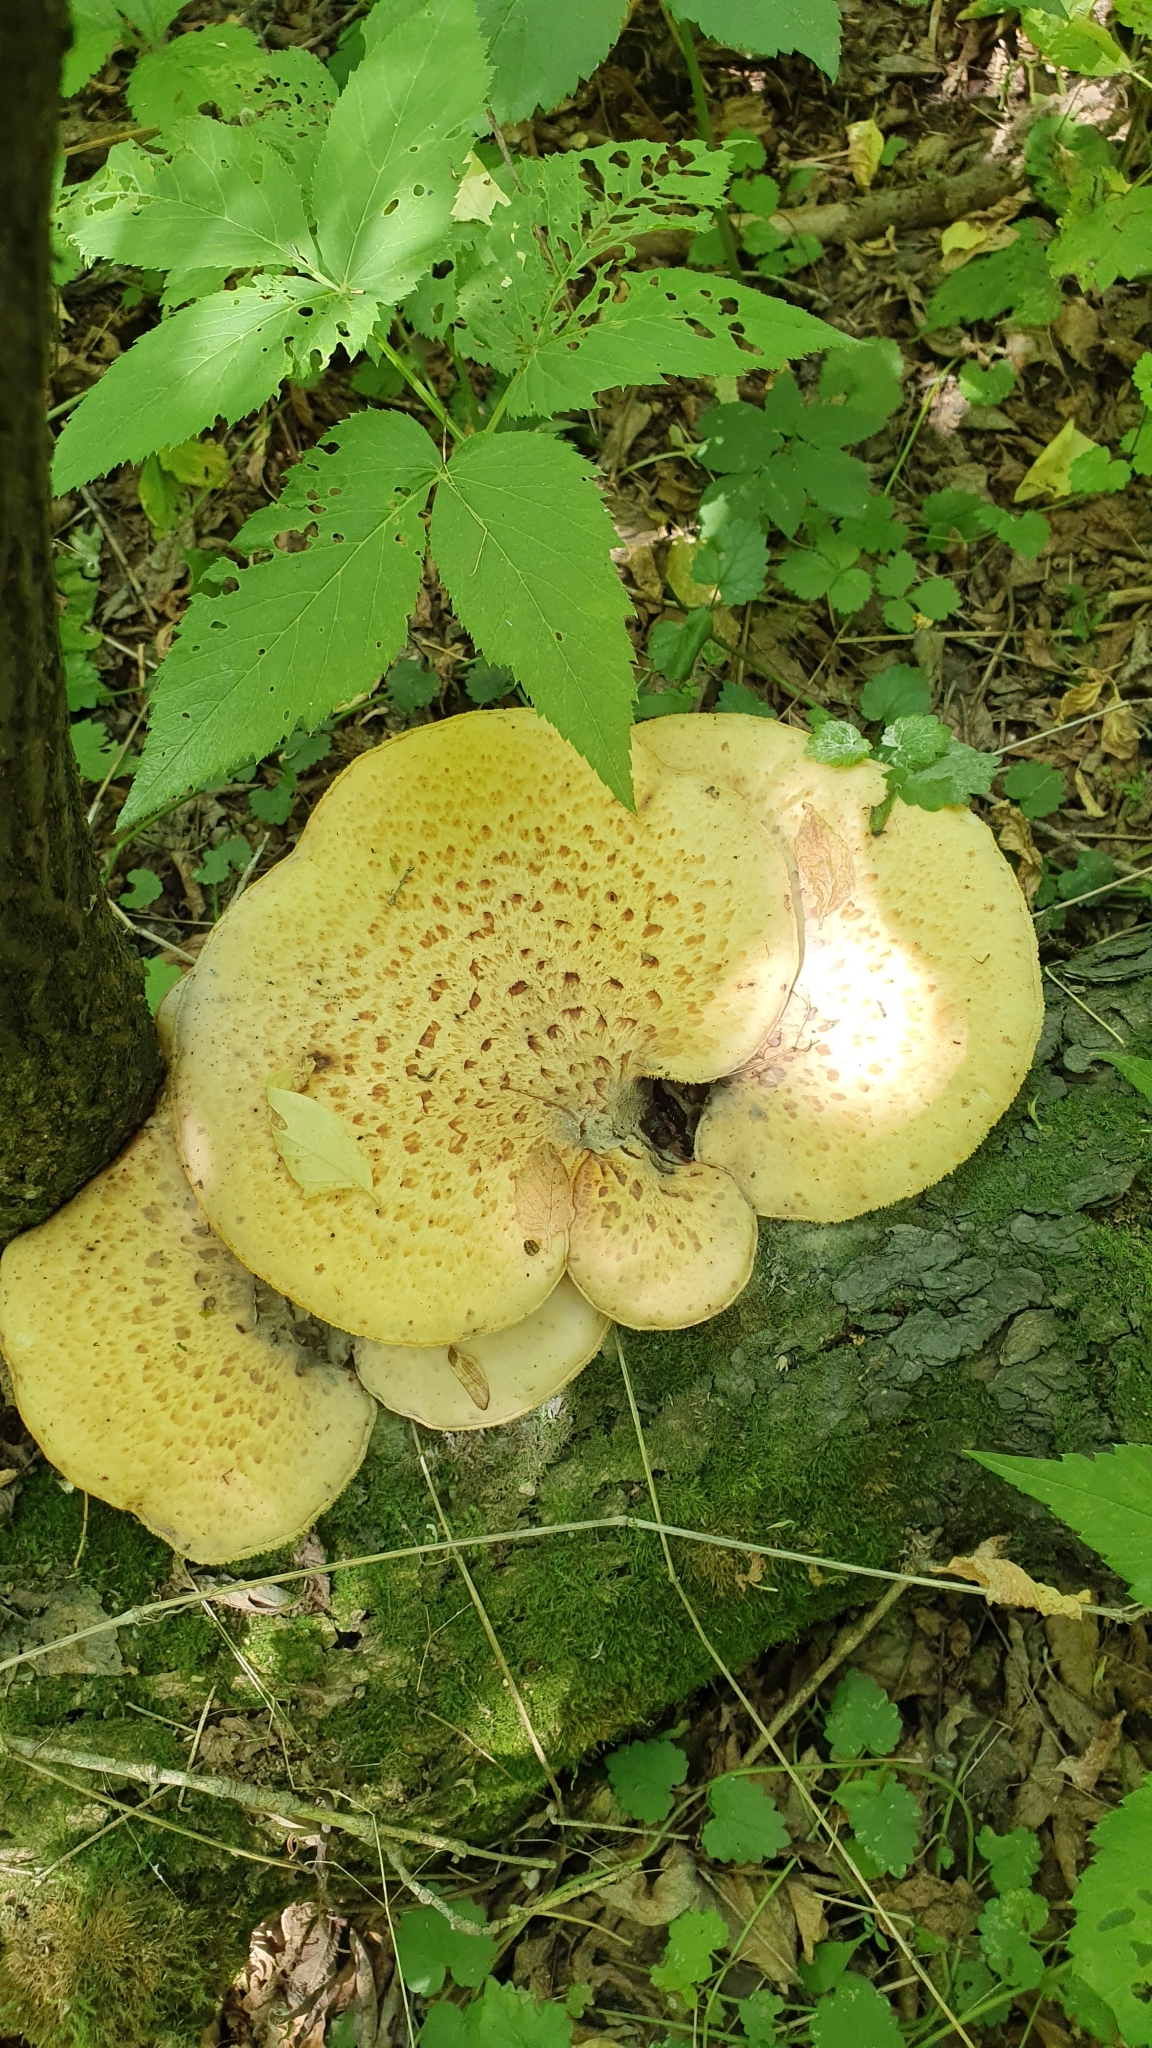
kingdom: Fungi
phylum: Basidiomycota
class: Agaricomycetes
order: Polyporales
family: Polyporaceae
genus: Cerioporus
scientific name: Cerioporus squamosus
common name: Dryad's saddle
